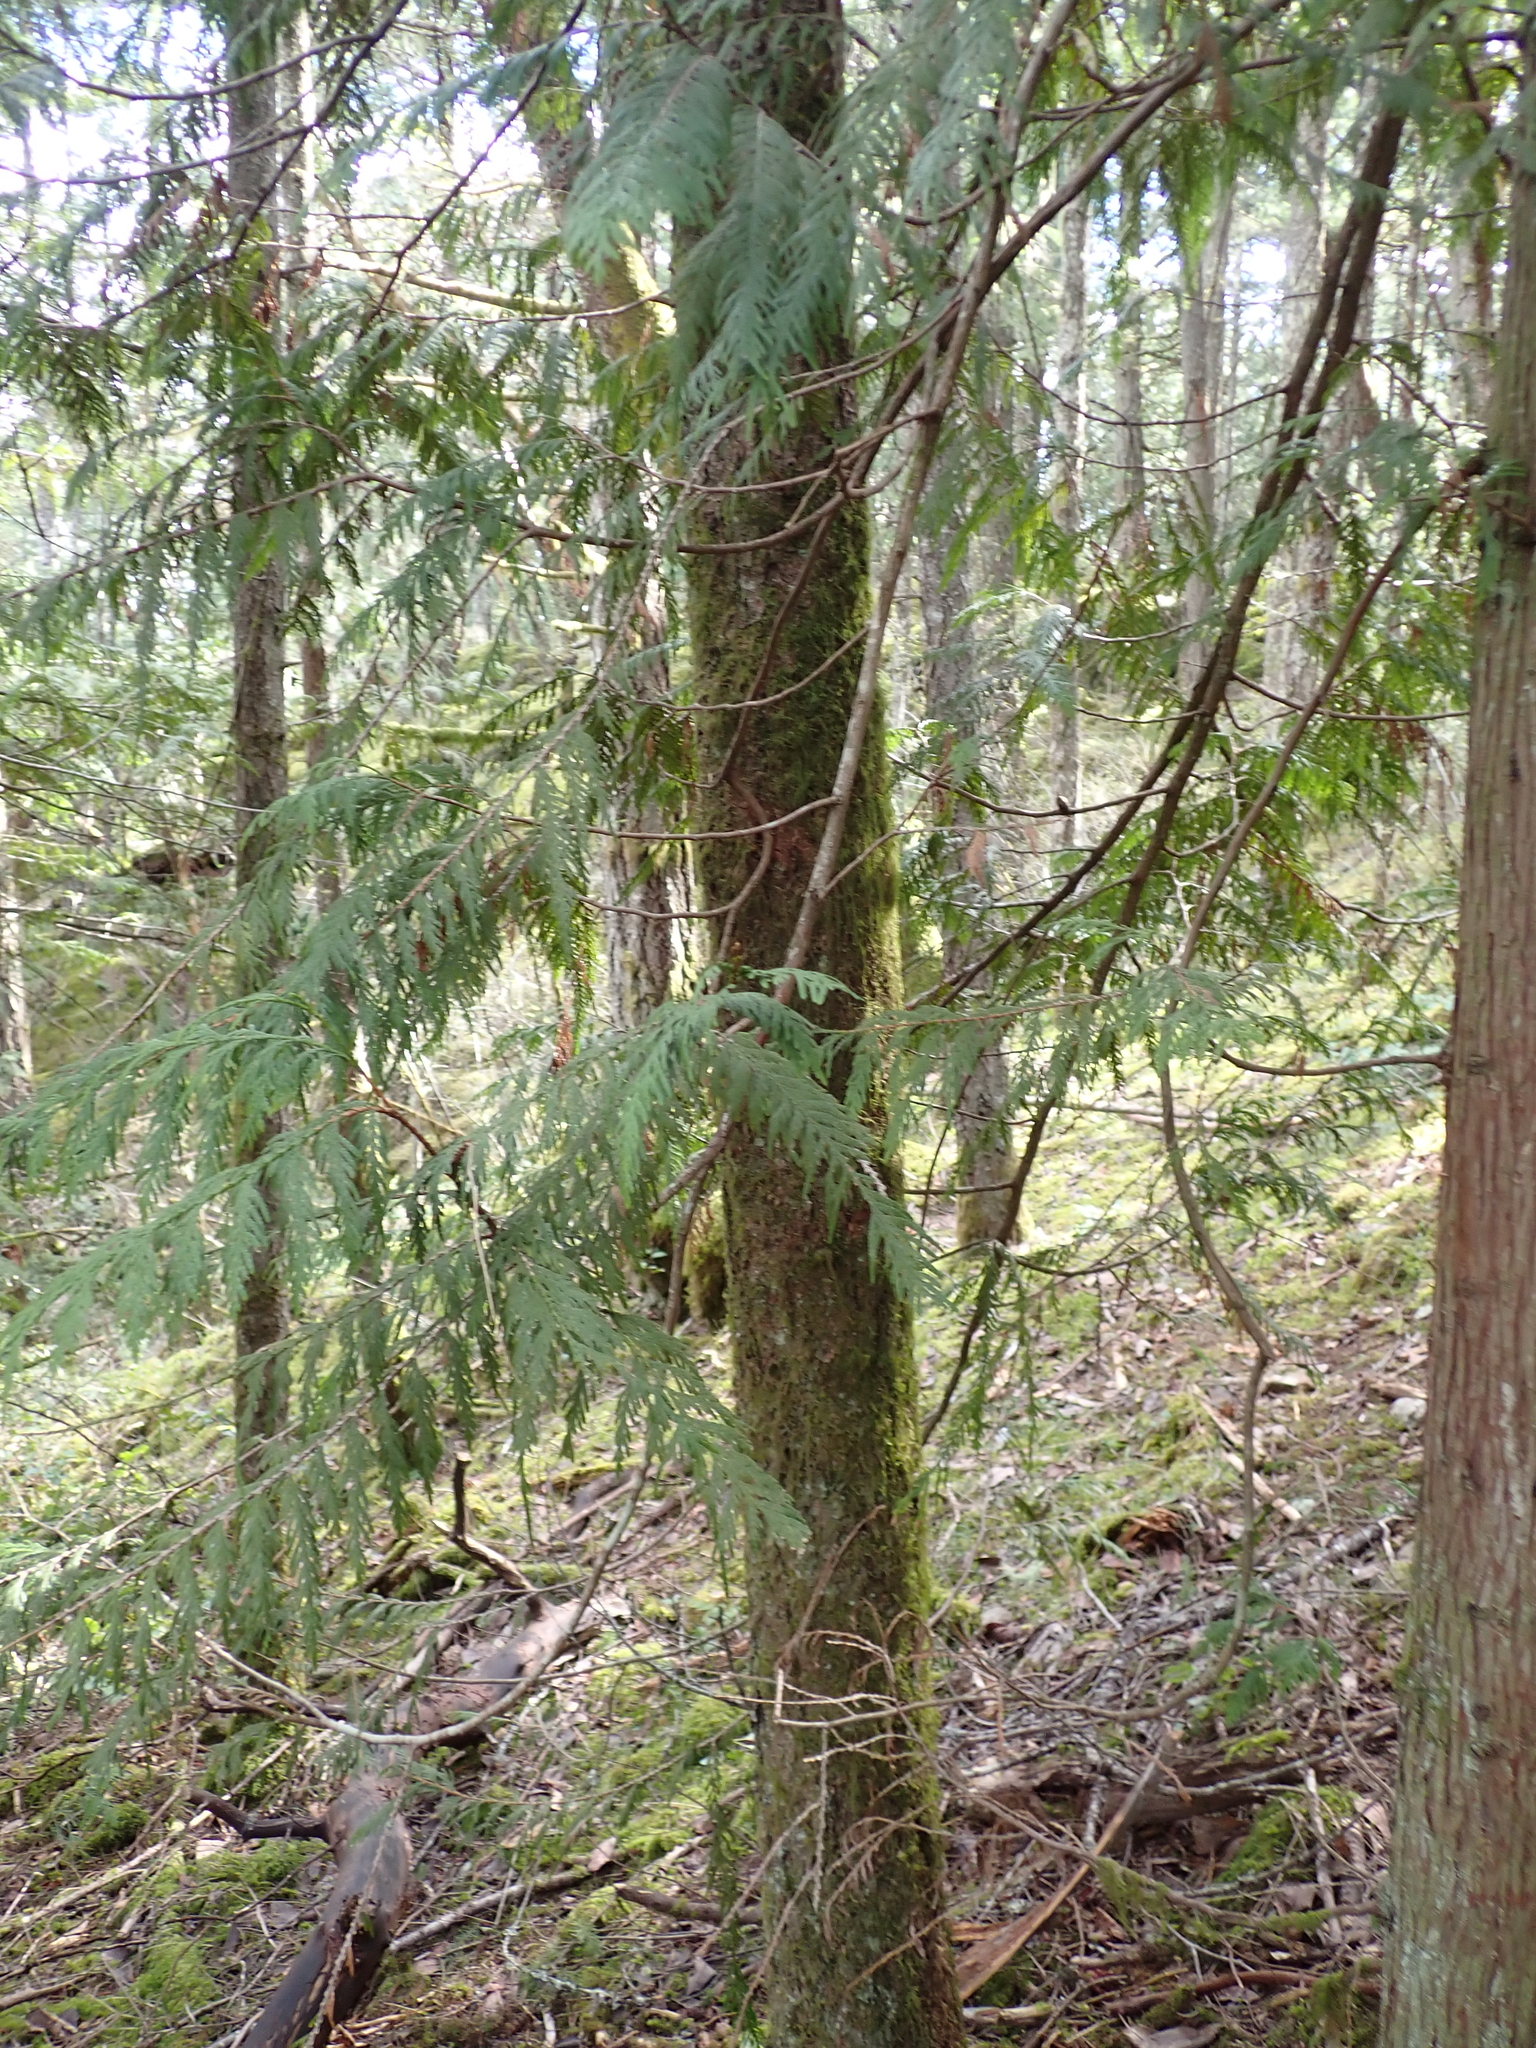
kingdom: Plantae
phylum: Tracheophyta
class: Pinopsida
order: Pinales
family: Cupressaceae
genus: Thuja
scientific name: Thuja plicata
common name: Western red-cedar
